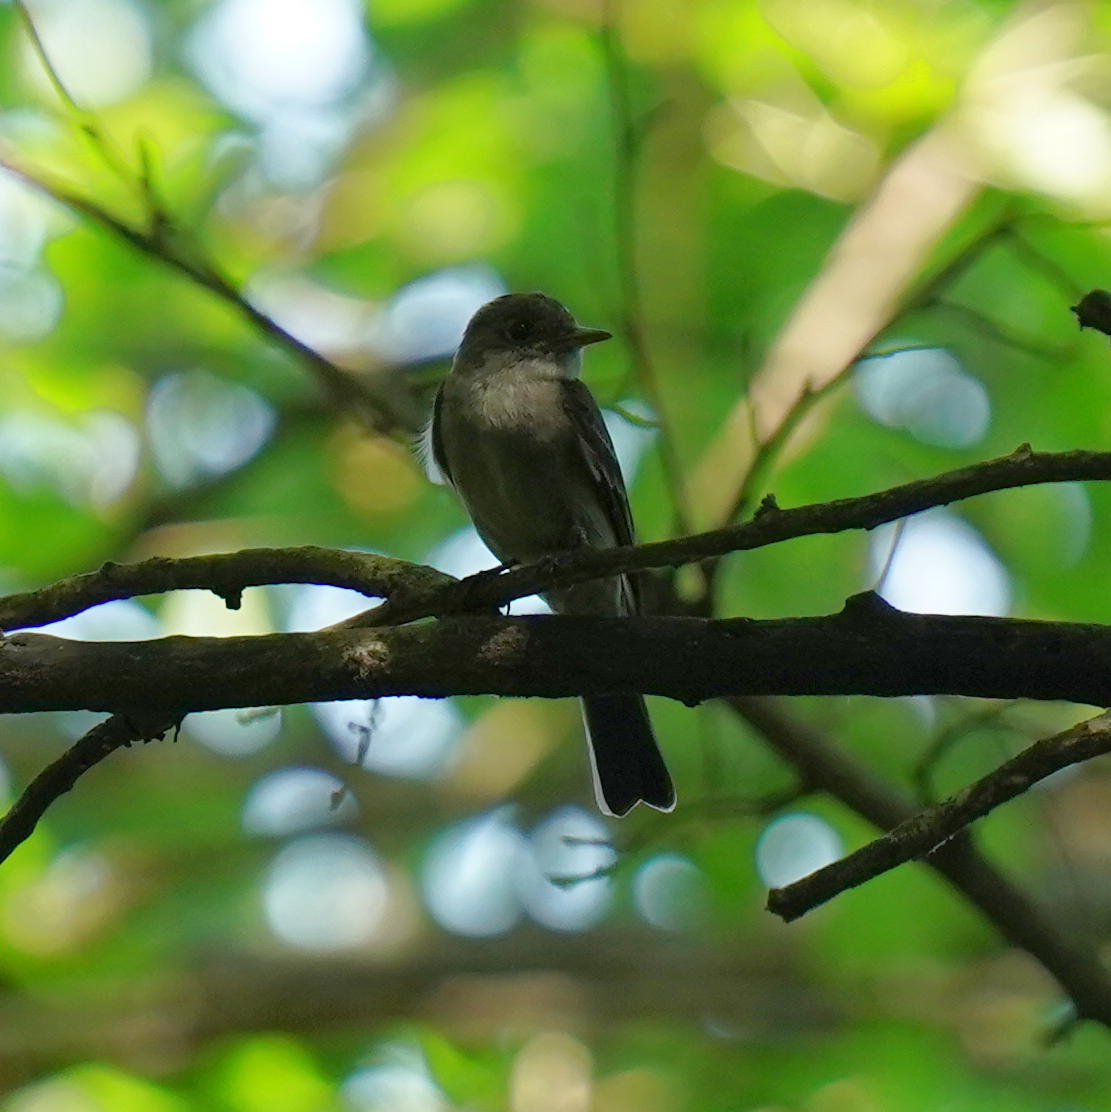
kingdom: Animalia
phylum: Chordata
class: Aves
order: Passeriformes
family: Tyrannidae
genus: Contopus
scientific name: Contopus virens
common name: Eastern wood-pewee
